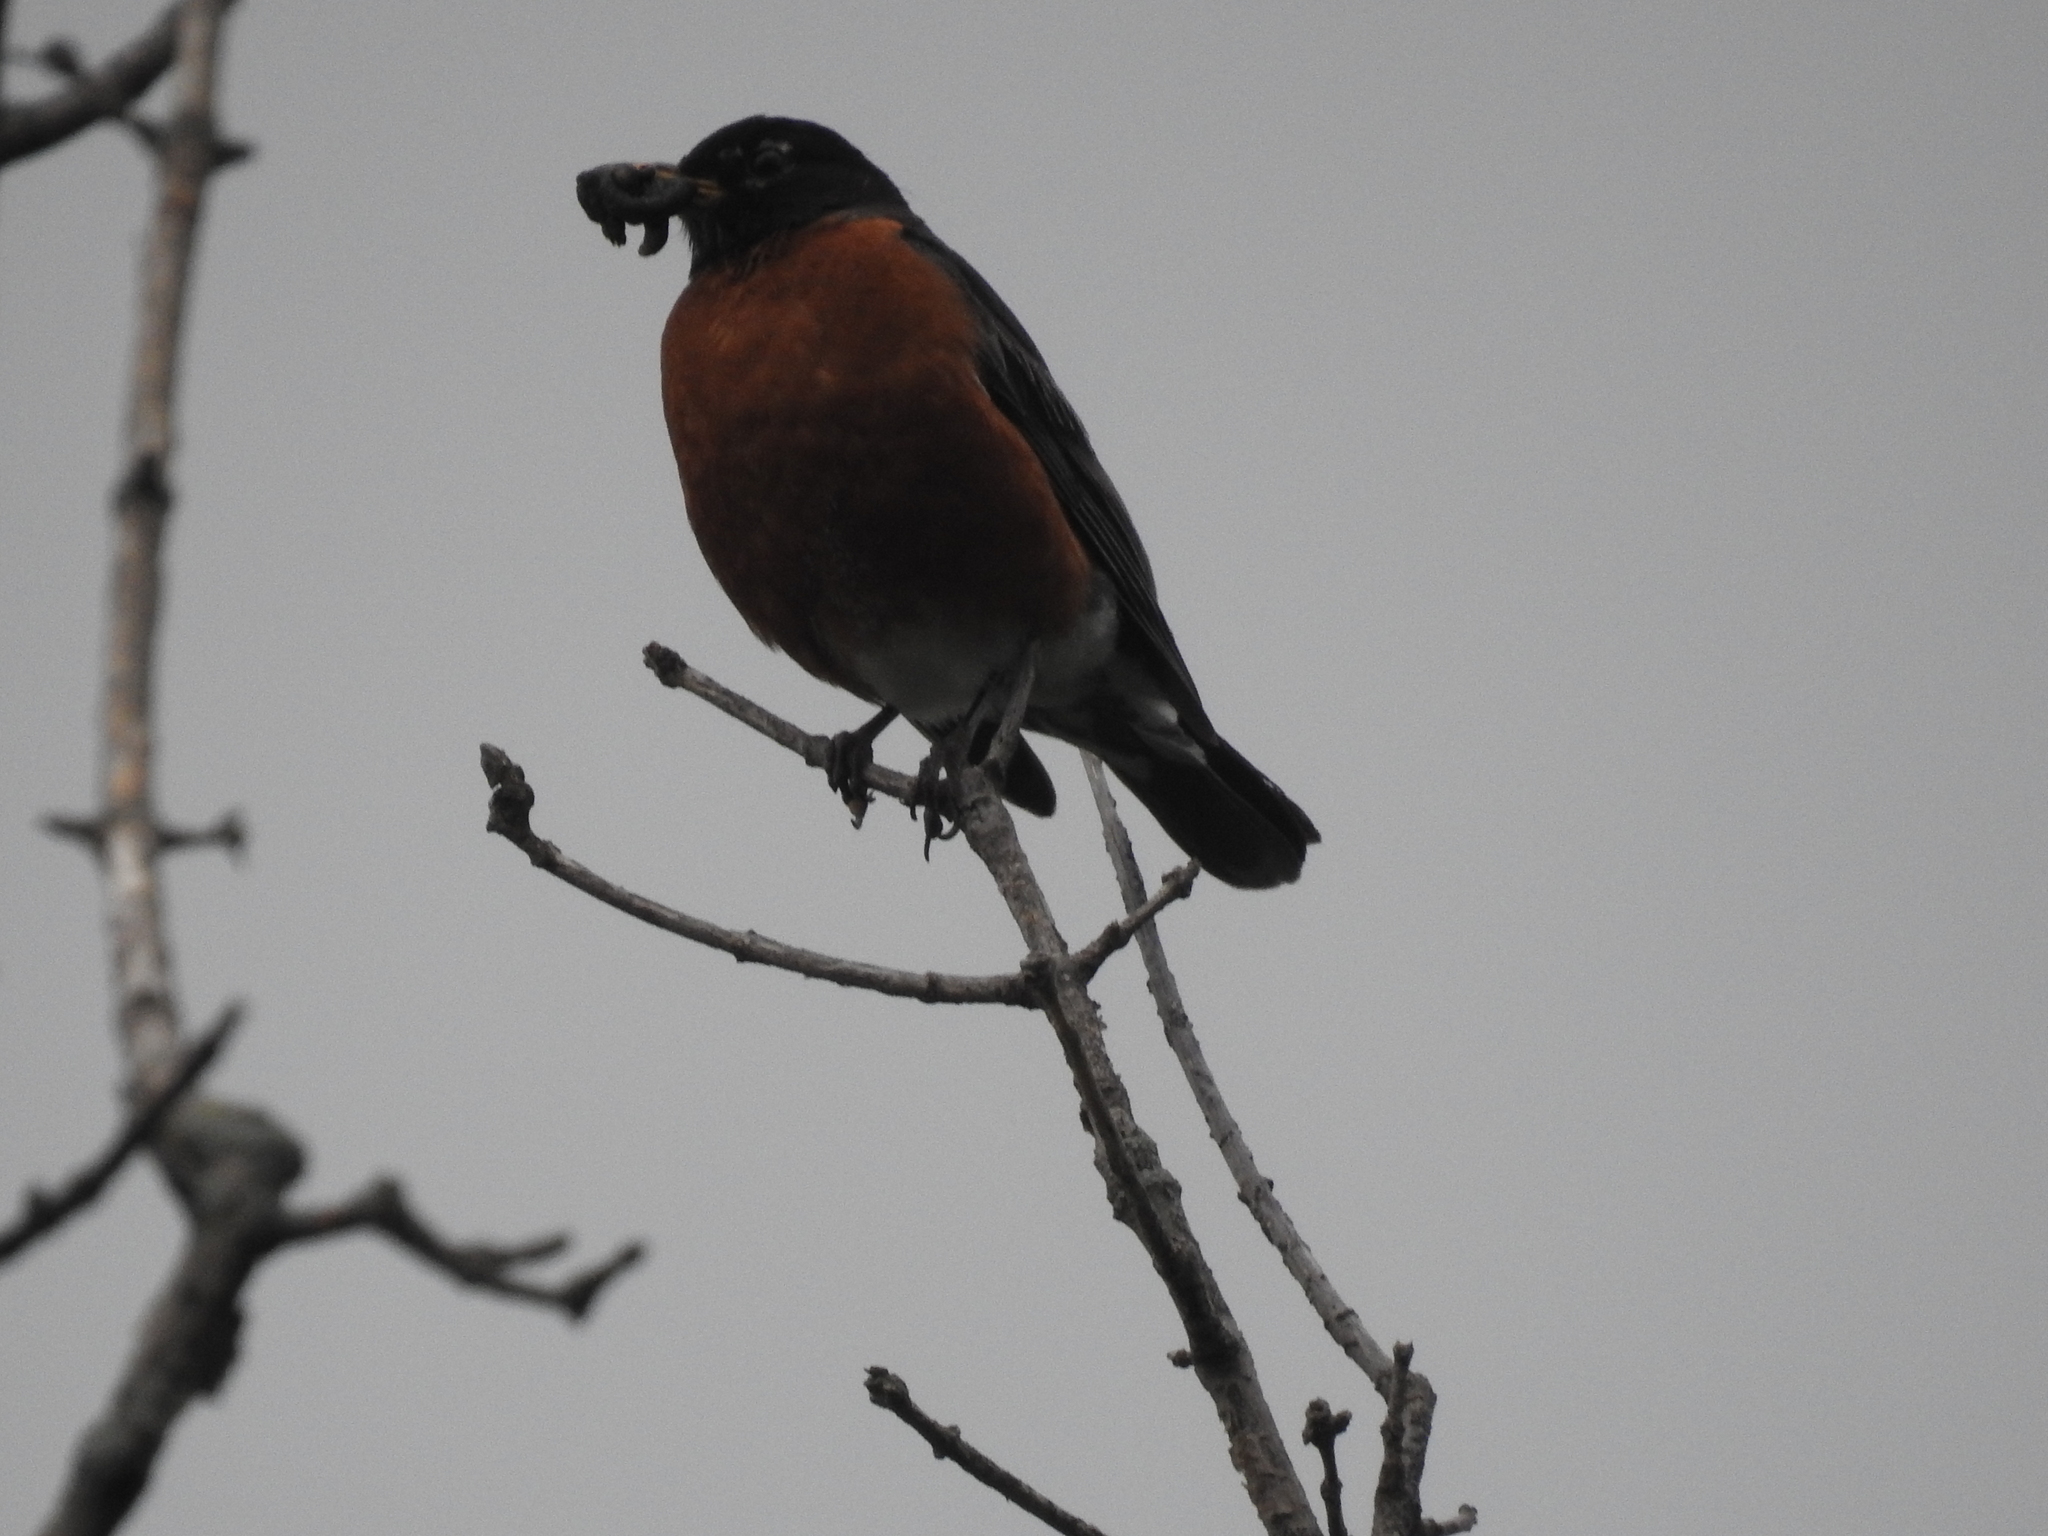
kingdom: Animalia
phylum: Chordata
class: Aves
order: Passeriformes
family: Turdidae
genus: Turdus
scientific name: Turdus migratorius
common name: American robin
